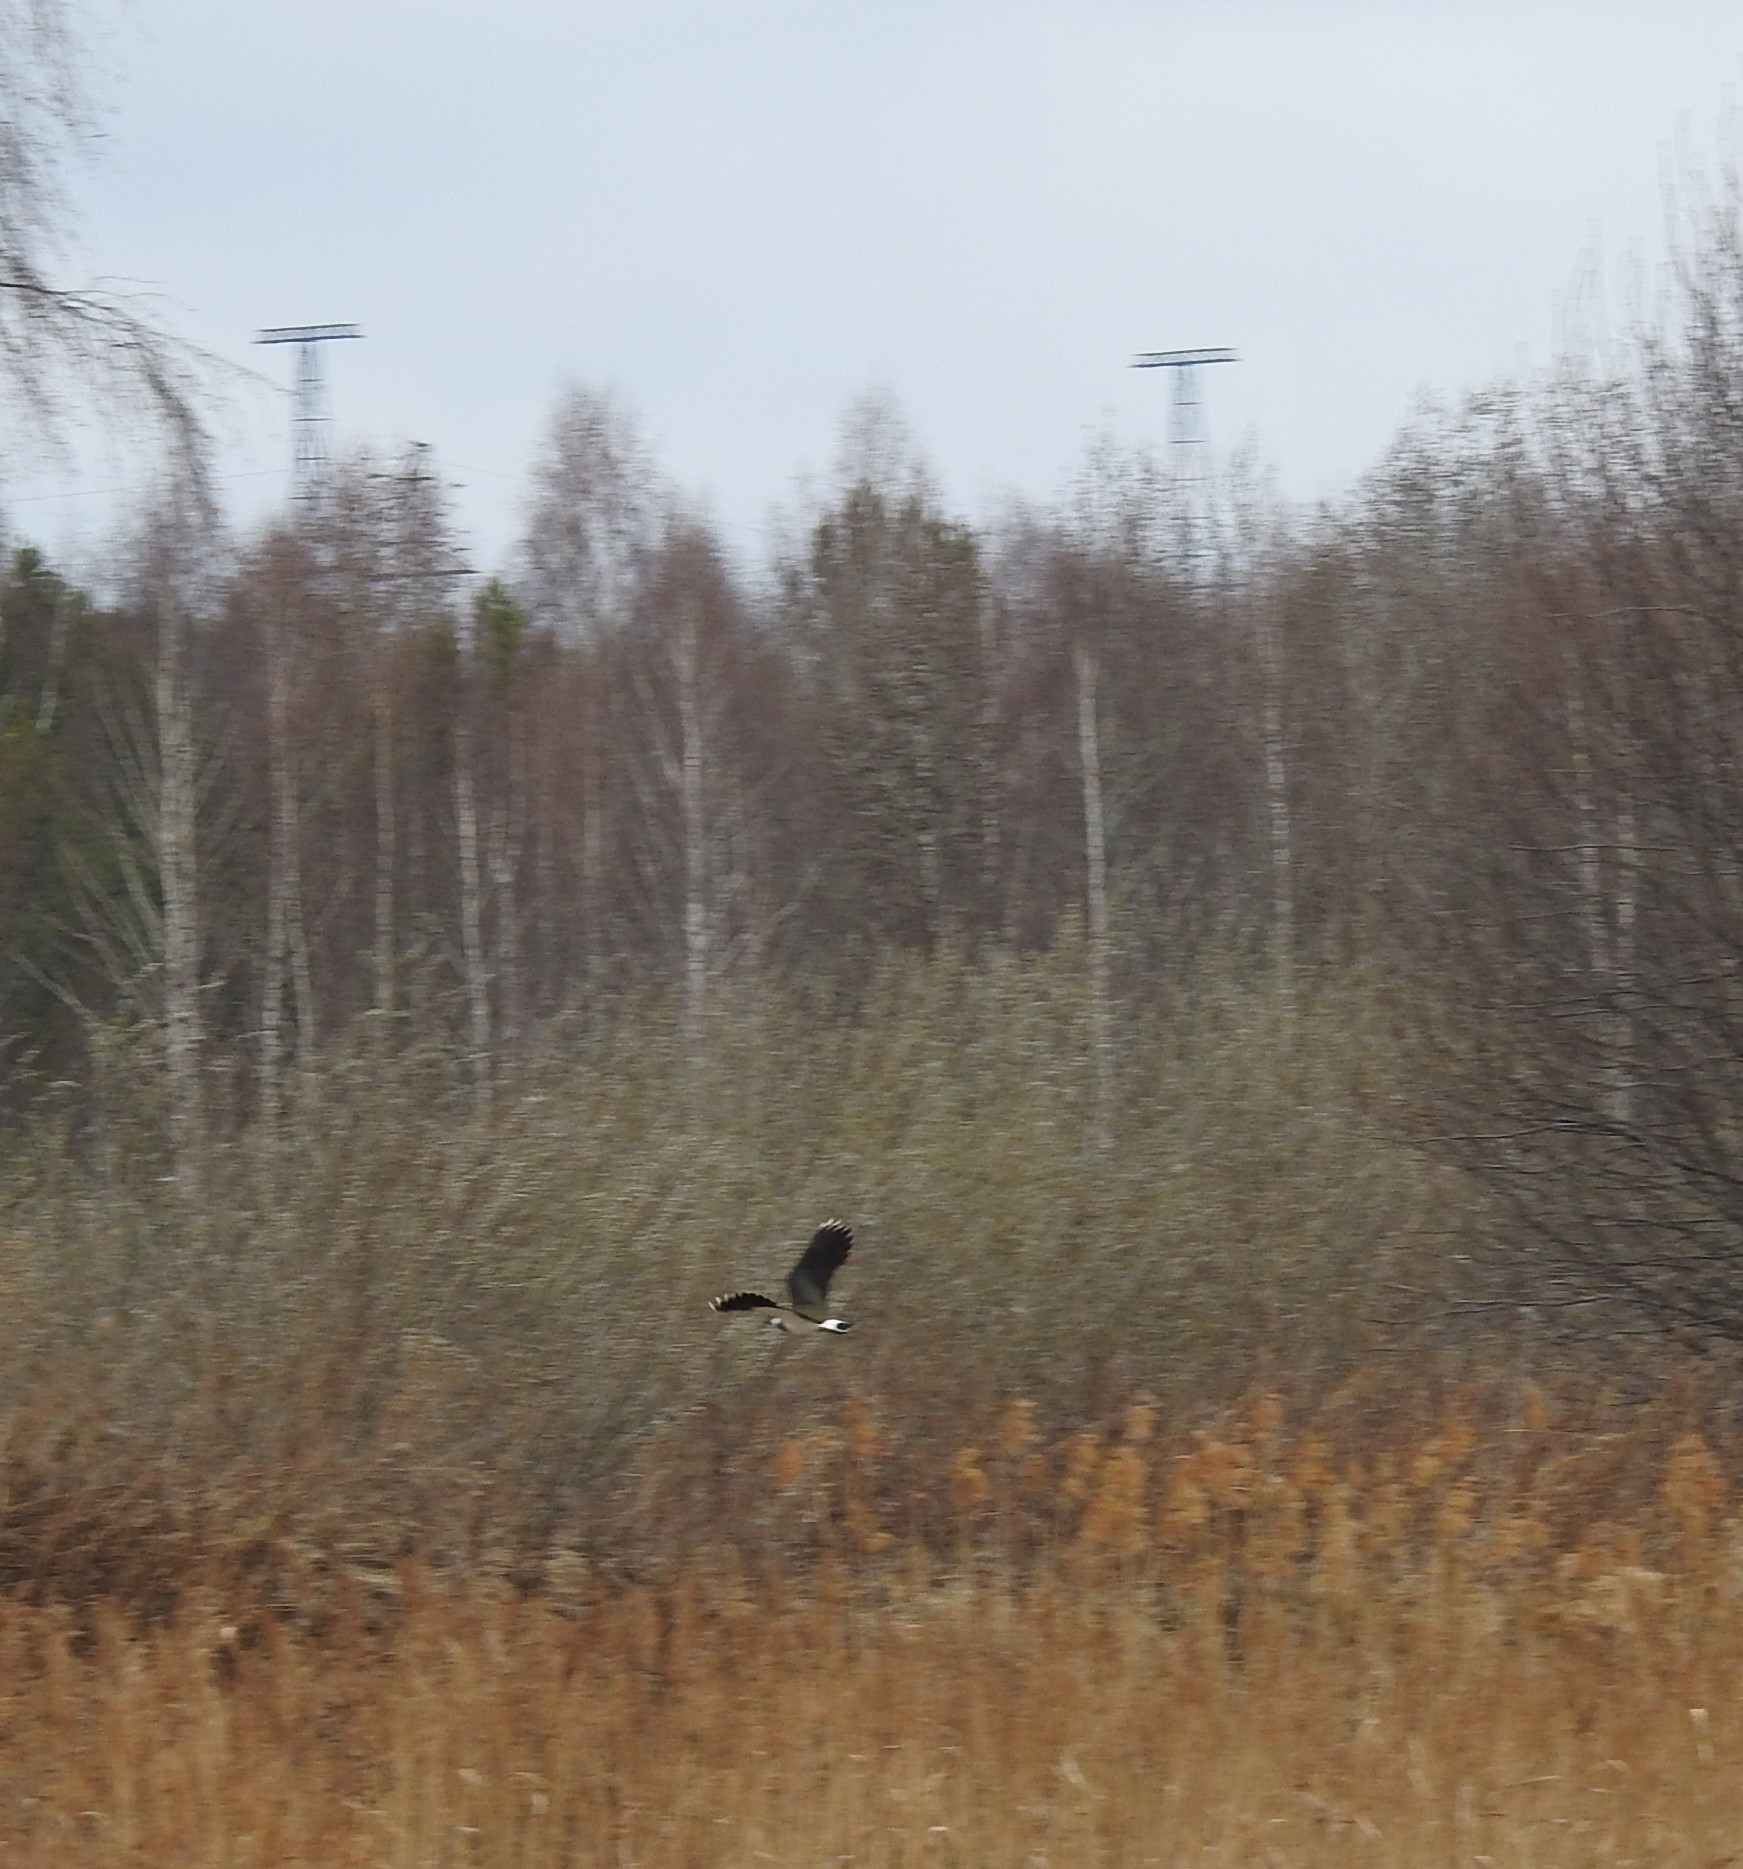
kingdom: Animalia
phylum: Chordata
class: Aves
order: Charadriiformes
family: Charadriidae
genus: Vanellus
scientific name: Vanellus vanellus
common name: Northern lapwing
